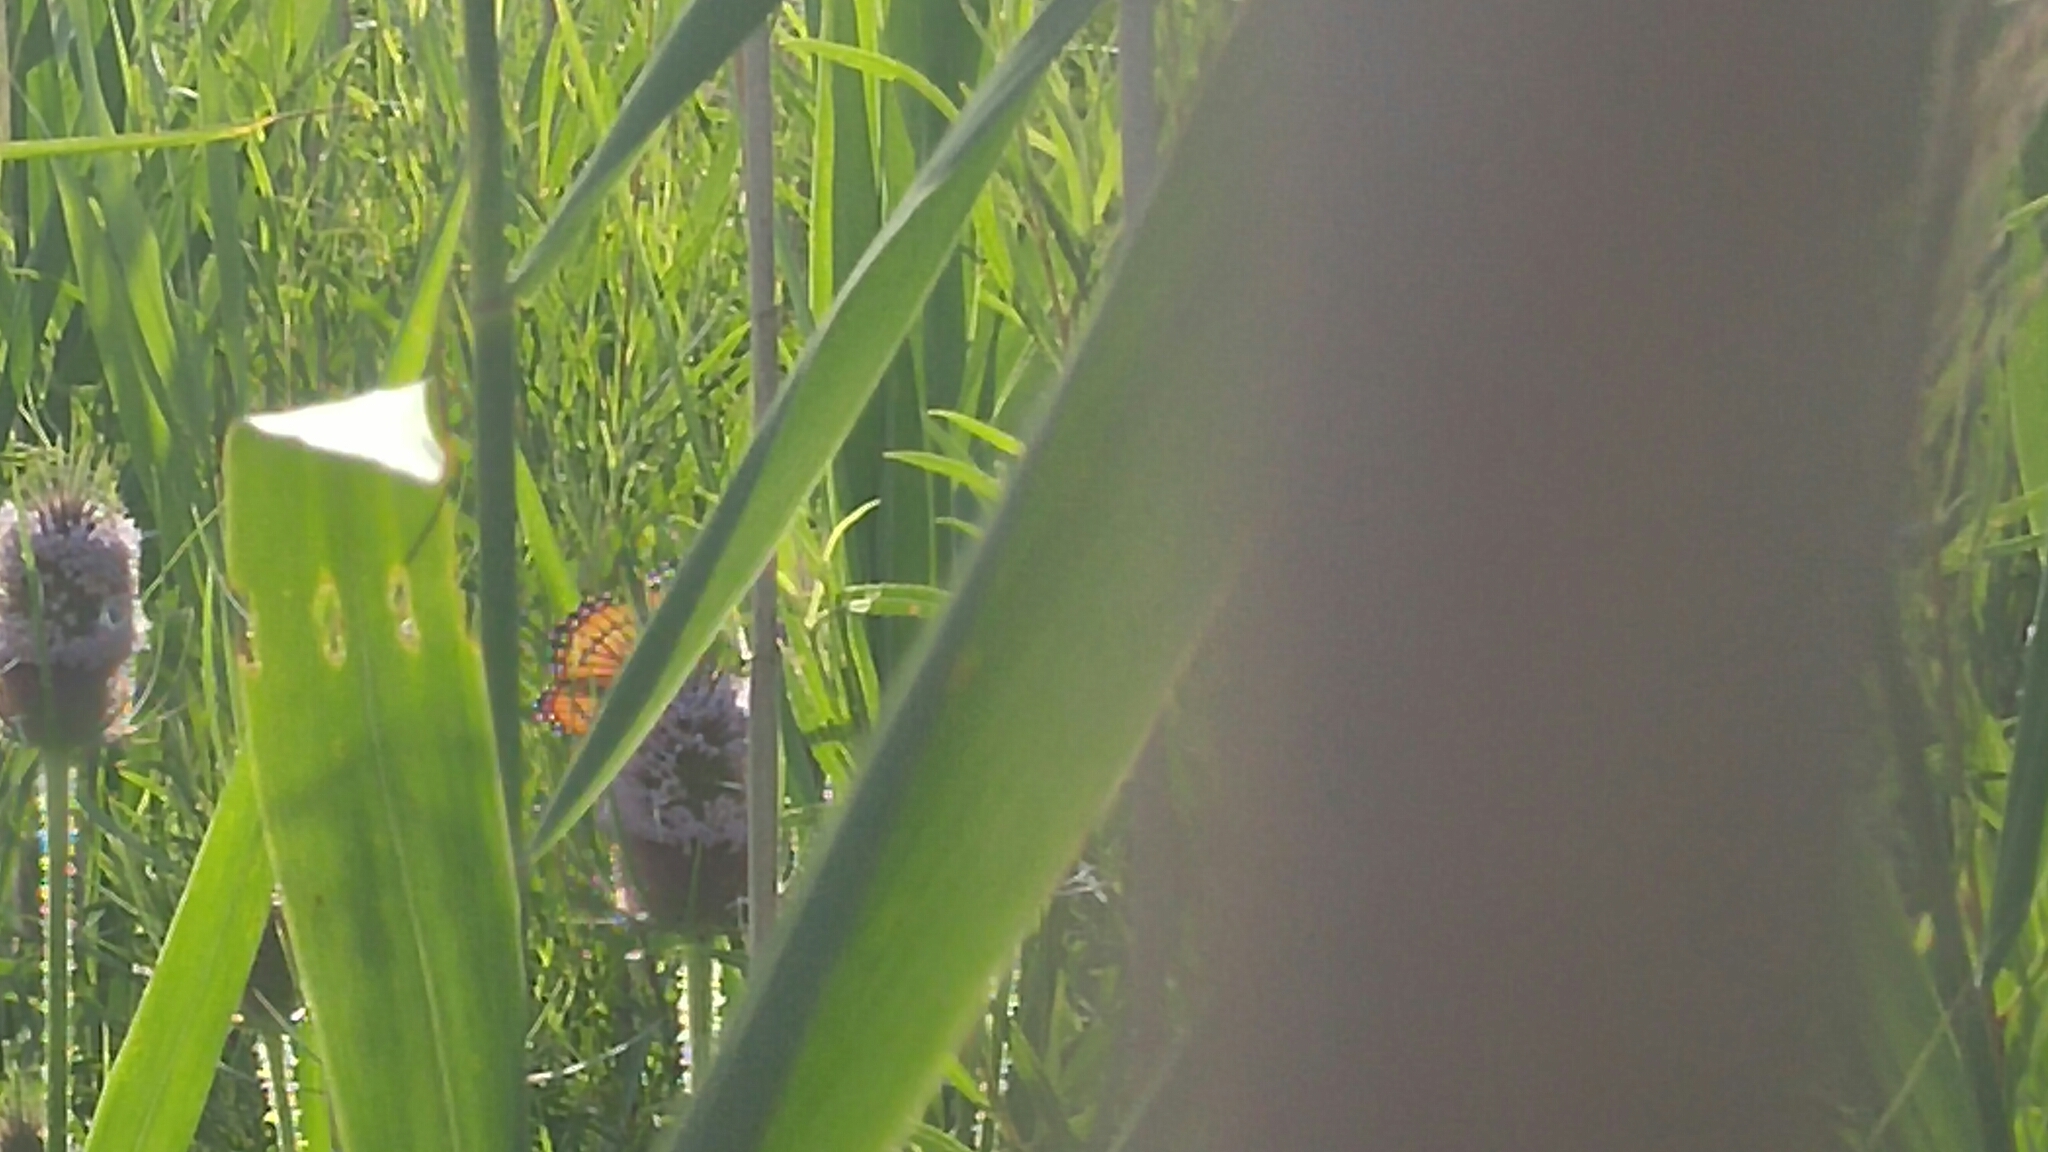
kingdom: Animalia
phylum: Arthropoda
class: Insecta
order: Lepidoptera
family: Nymphalidae
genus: Limenitis
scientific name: Limenitis archippus
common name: Viceroy
